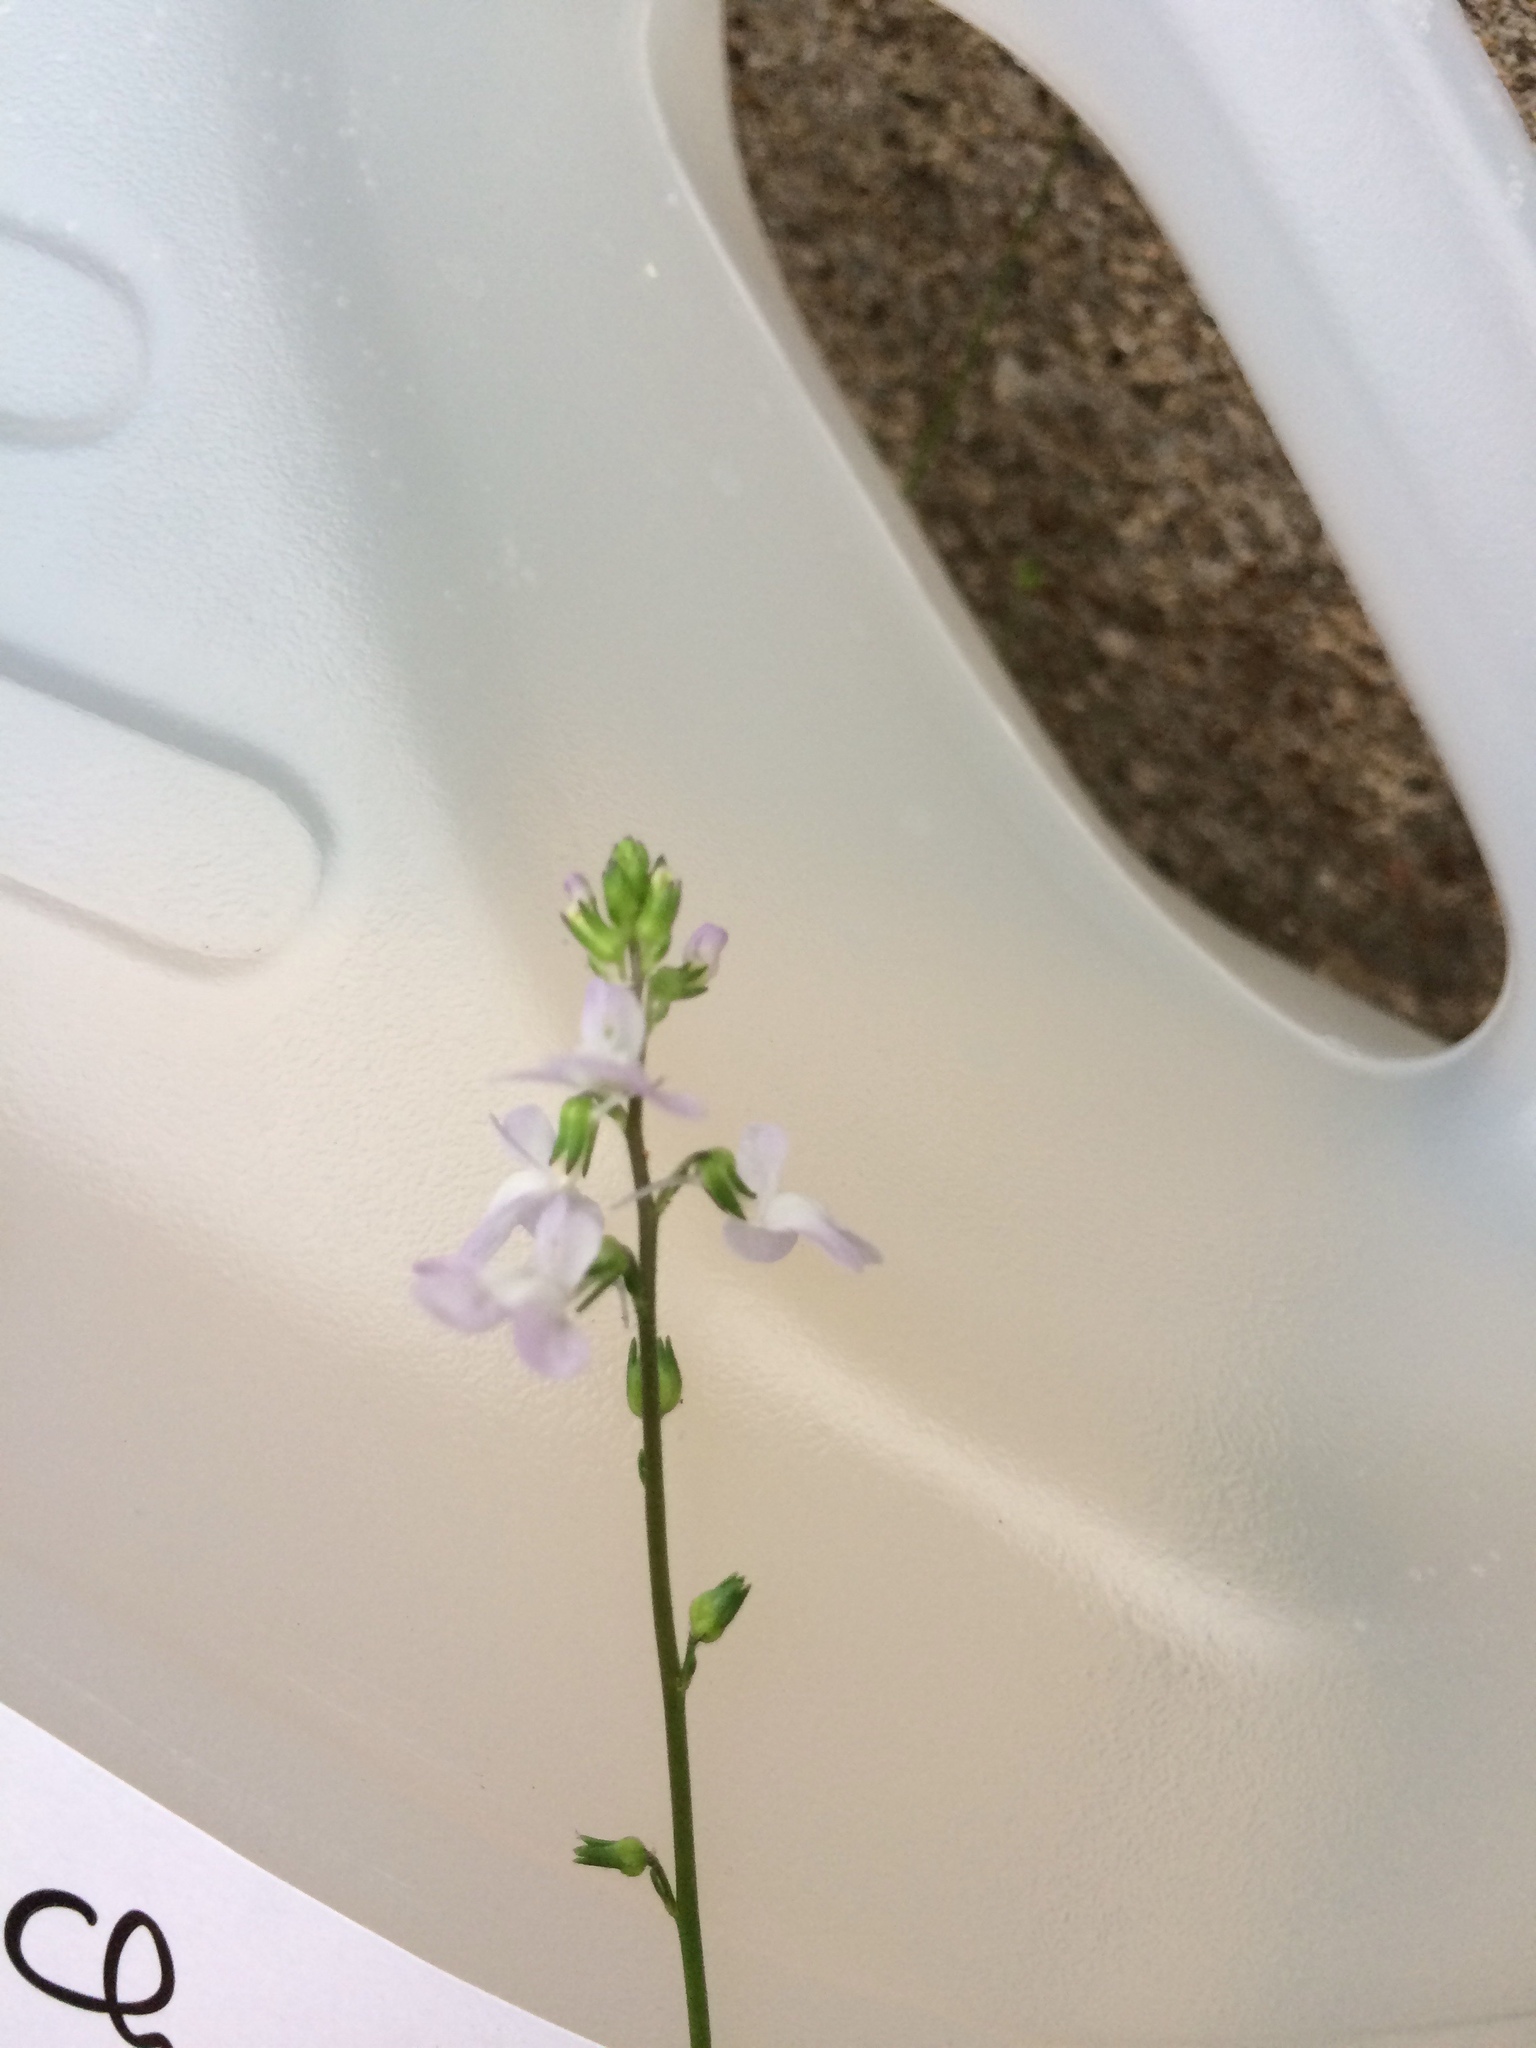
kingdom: Plantae
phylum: Tracheophyta
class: Magnoliopsida
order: Lamiales
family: Plantaginaceae
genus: Nuttallanthus
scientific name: Nuttallanthus canadensis
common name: Blue toadflax
